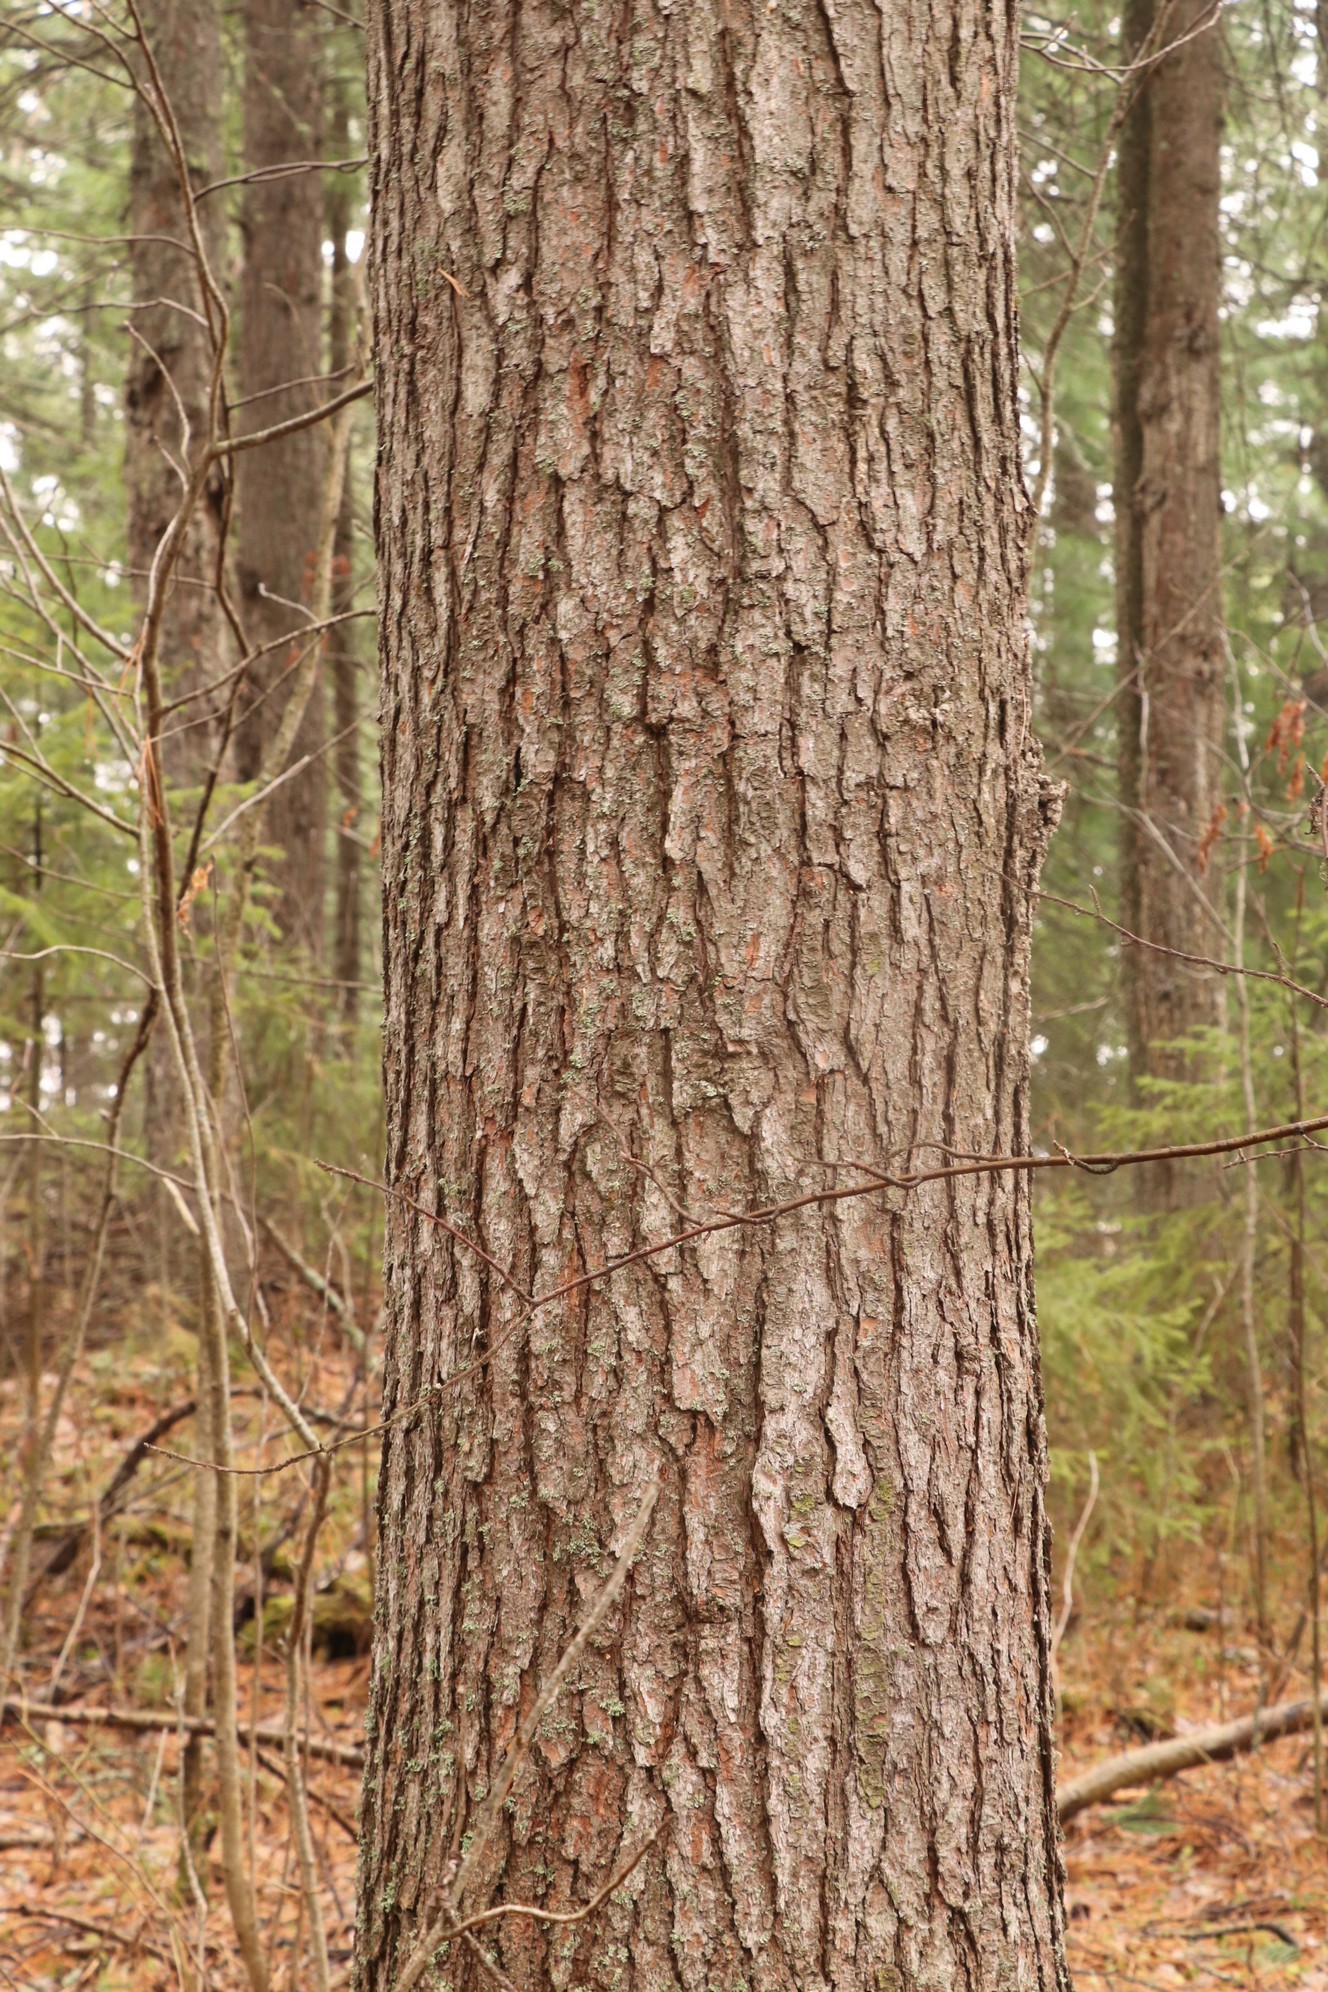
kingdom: Plantae
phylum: Tracheophyta
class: Pinopsida
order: Pinales
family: Pinaceae
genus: Pinus
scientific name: Pinus sibirica
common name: Siberian pine
